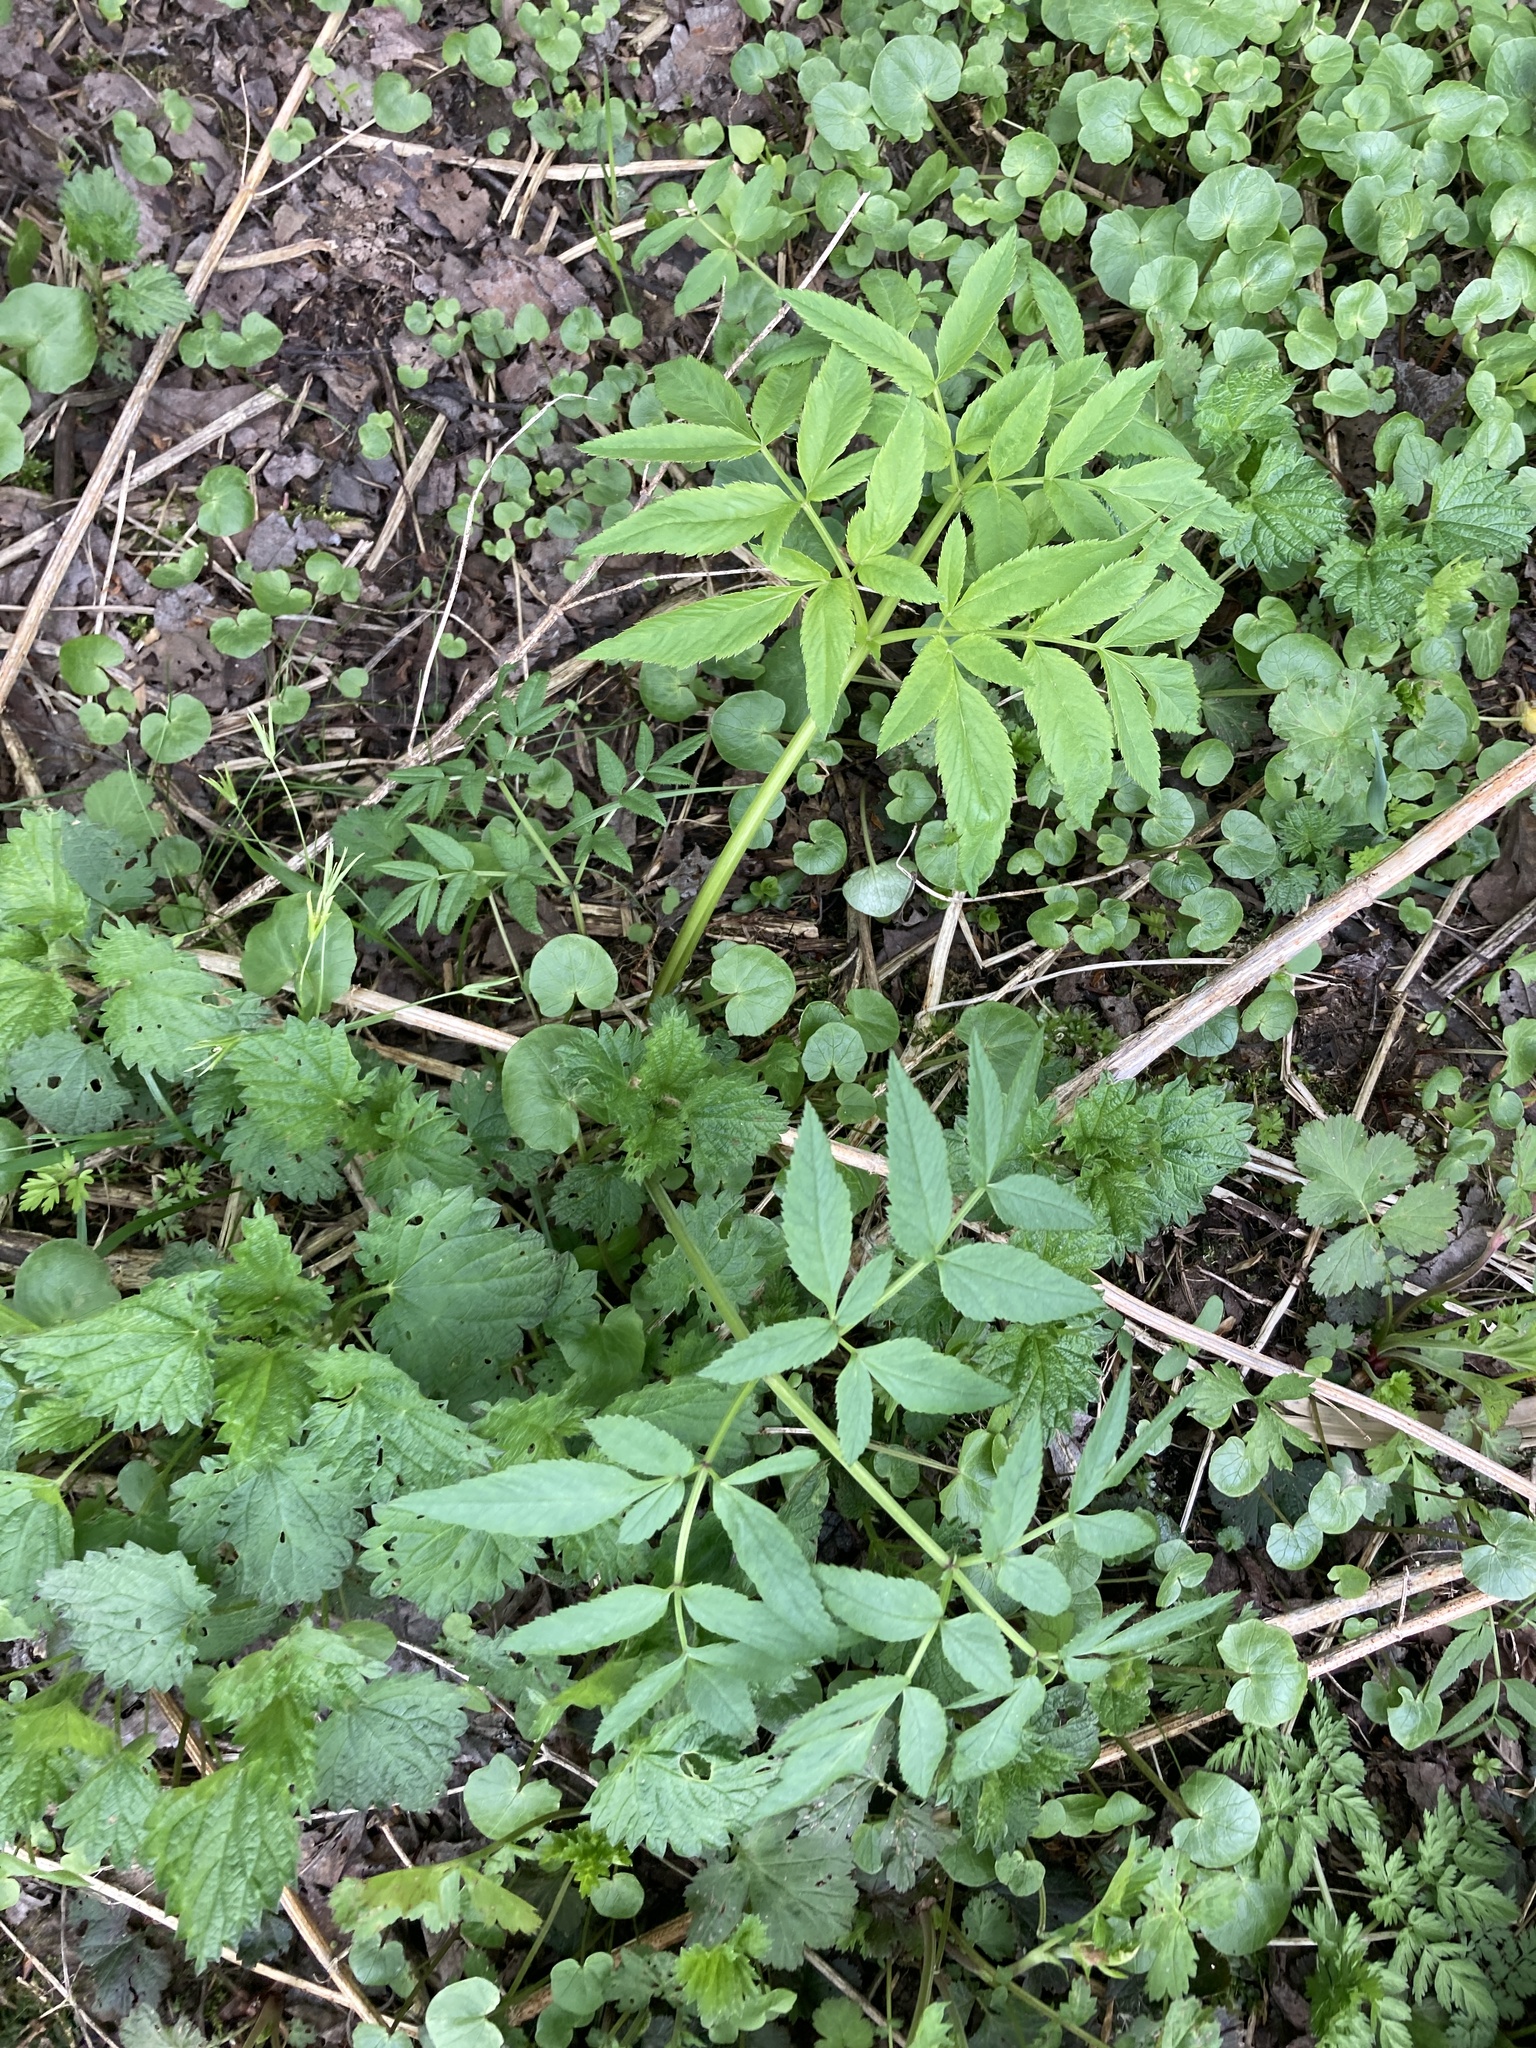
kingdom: Plantae
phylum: Tracheophyta
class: Magnoliopsida
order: Apiales
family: Apiaceae
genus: Angelica
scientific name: Angelica sylvestris
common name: Wild angelica
